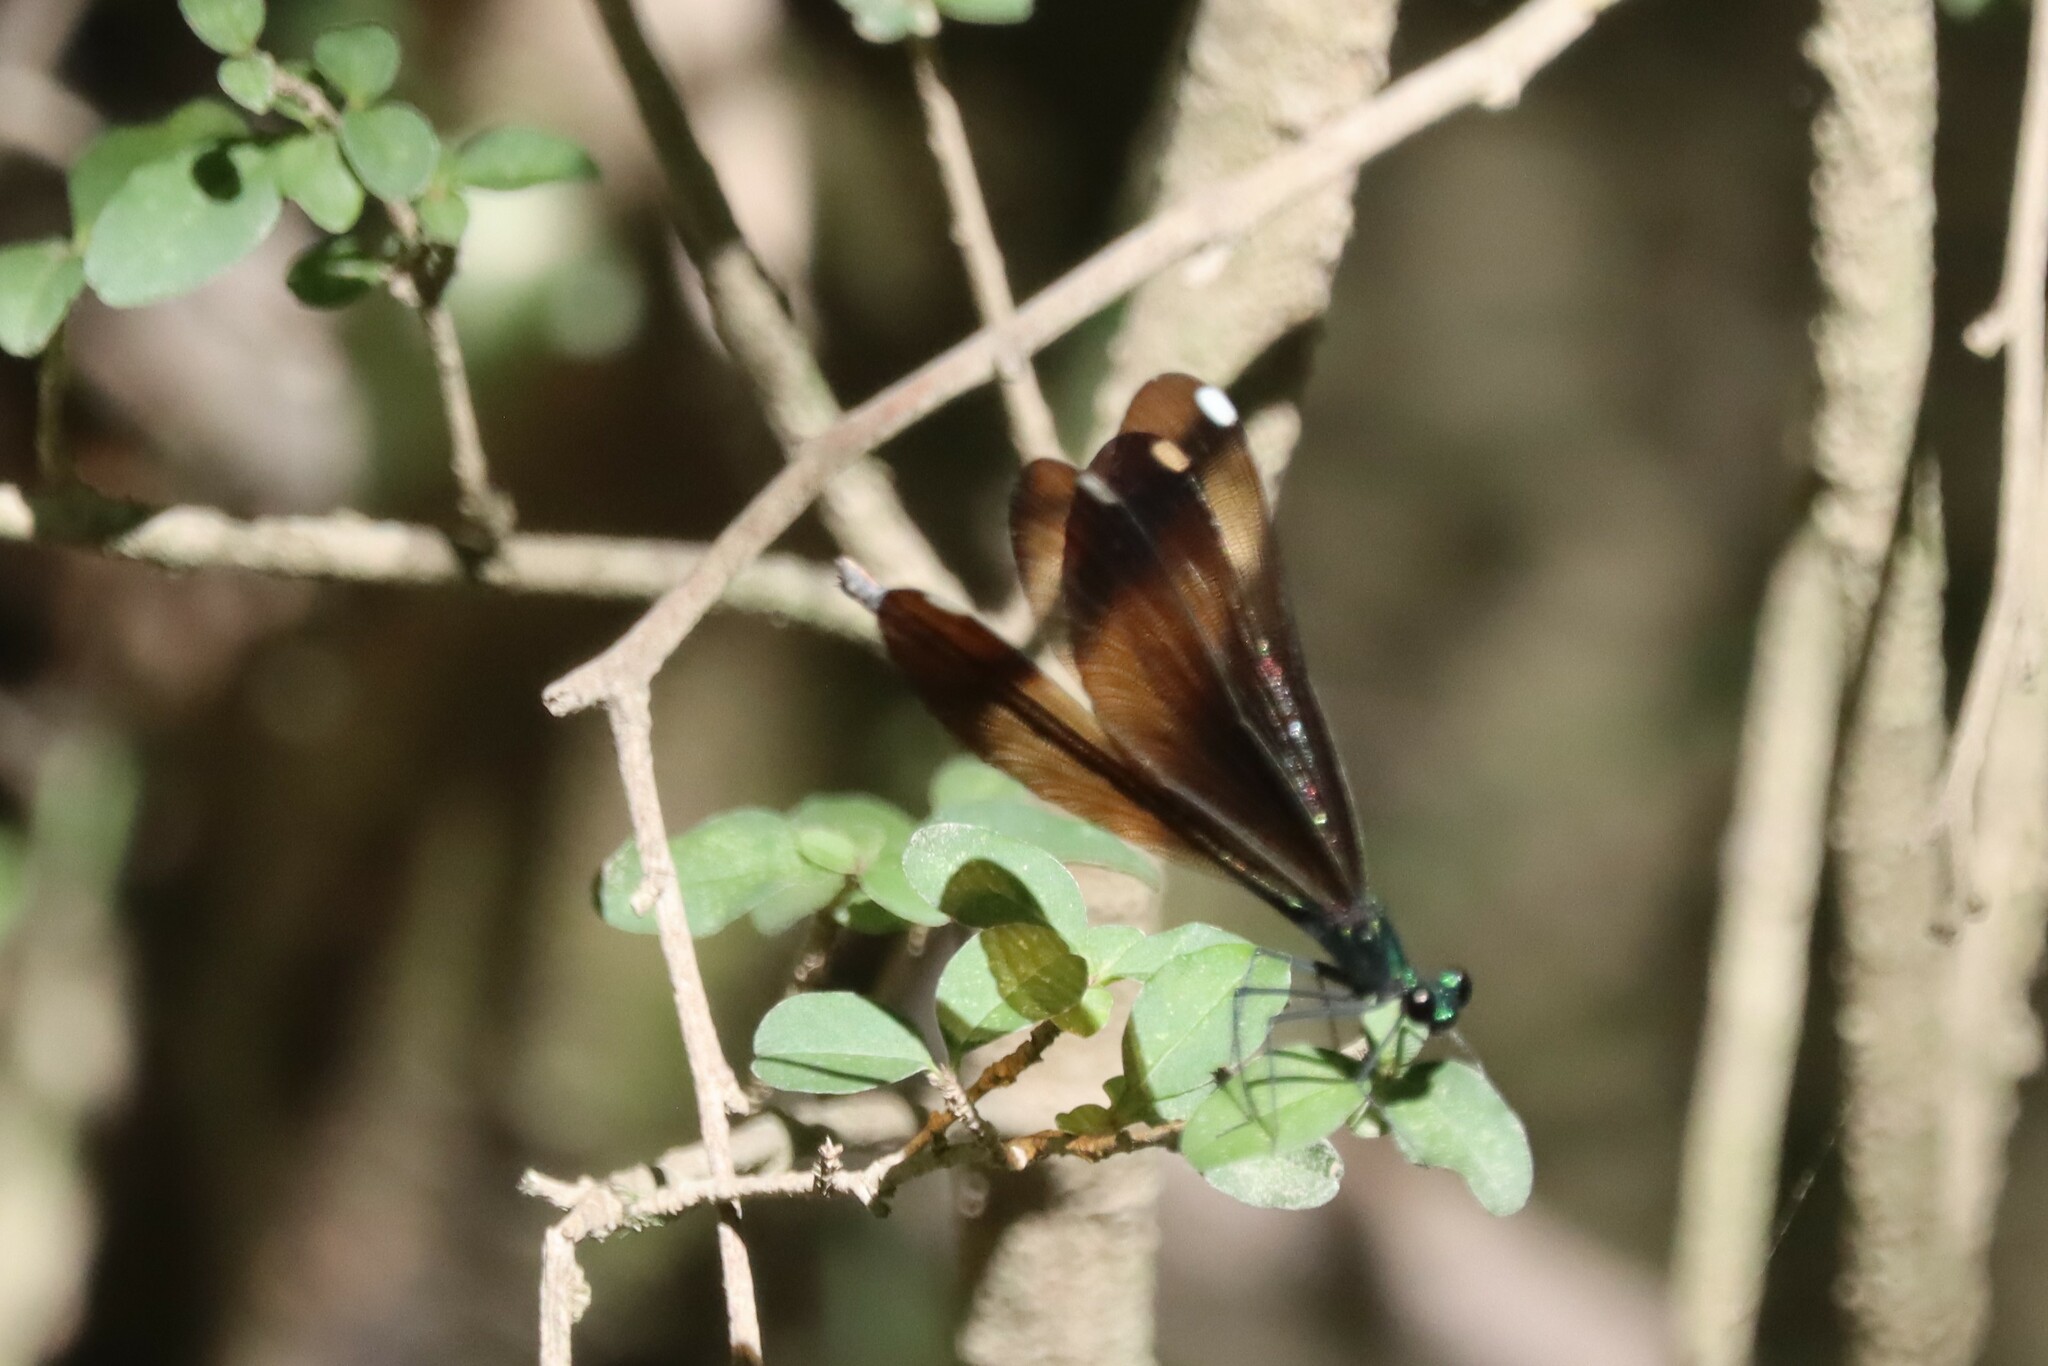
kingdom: Animalia
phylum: Arthropoda
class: Insecta
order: Odonata
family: Calopterygidae
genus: Calopteryx
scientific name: Calopteryx maculata
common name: Ebony jewelwing
